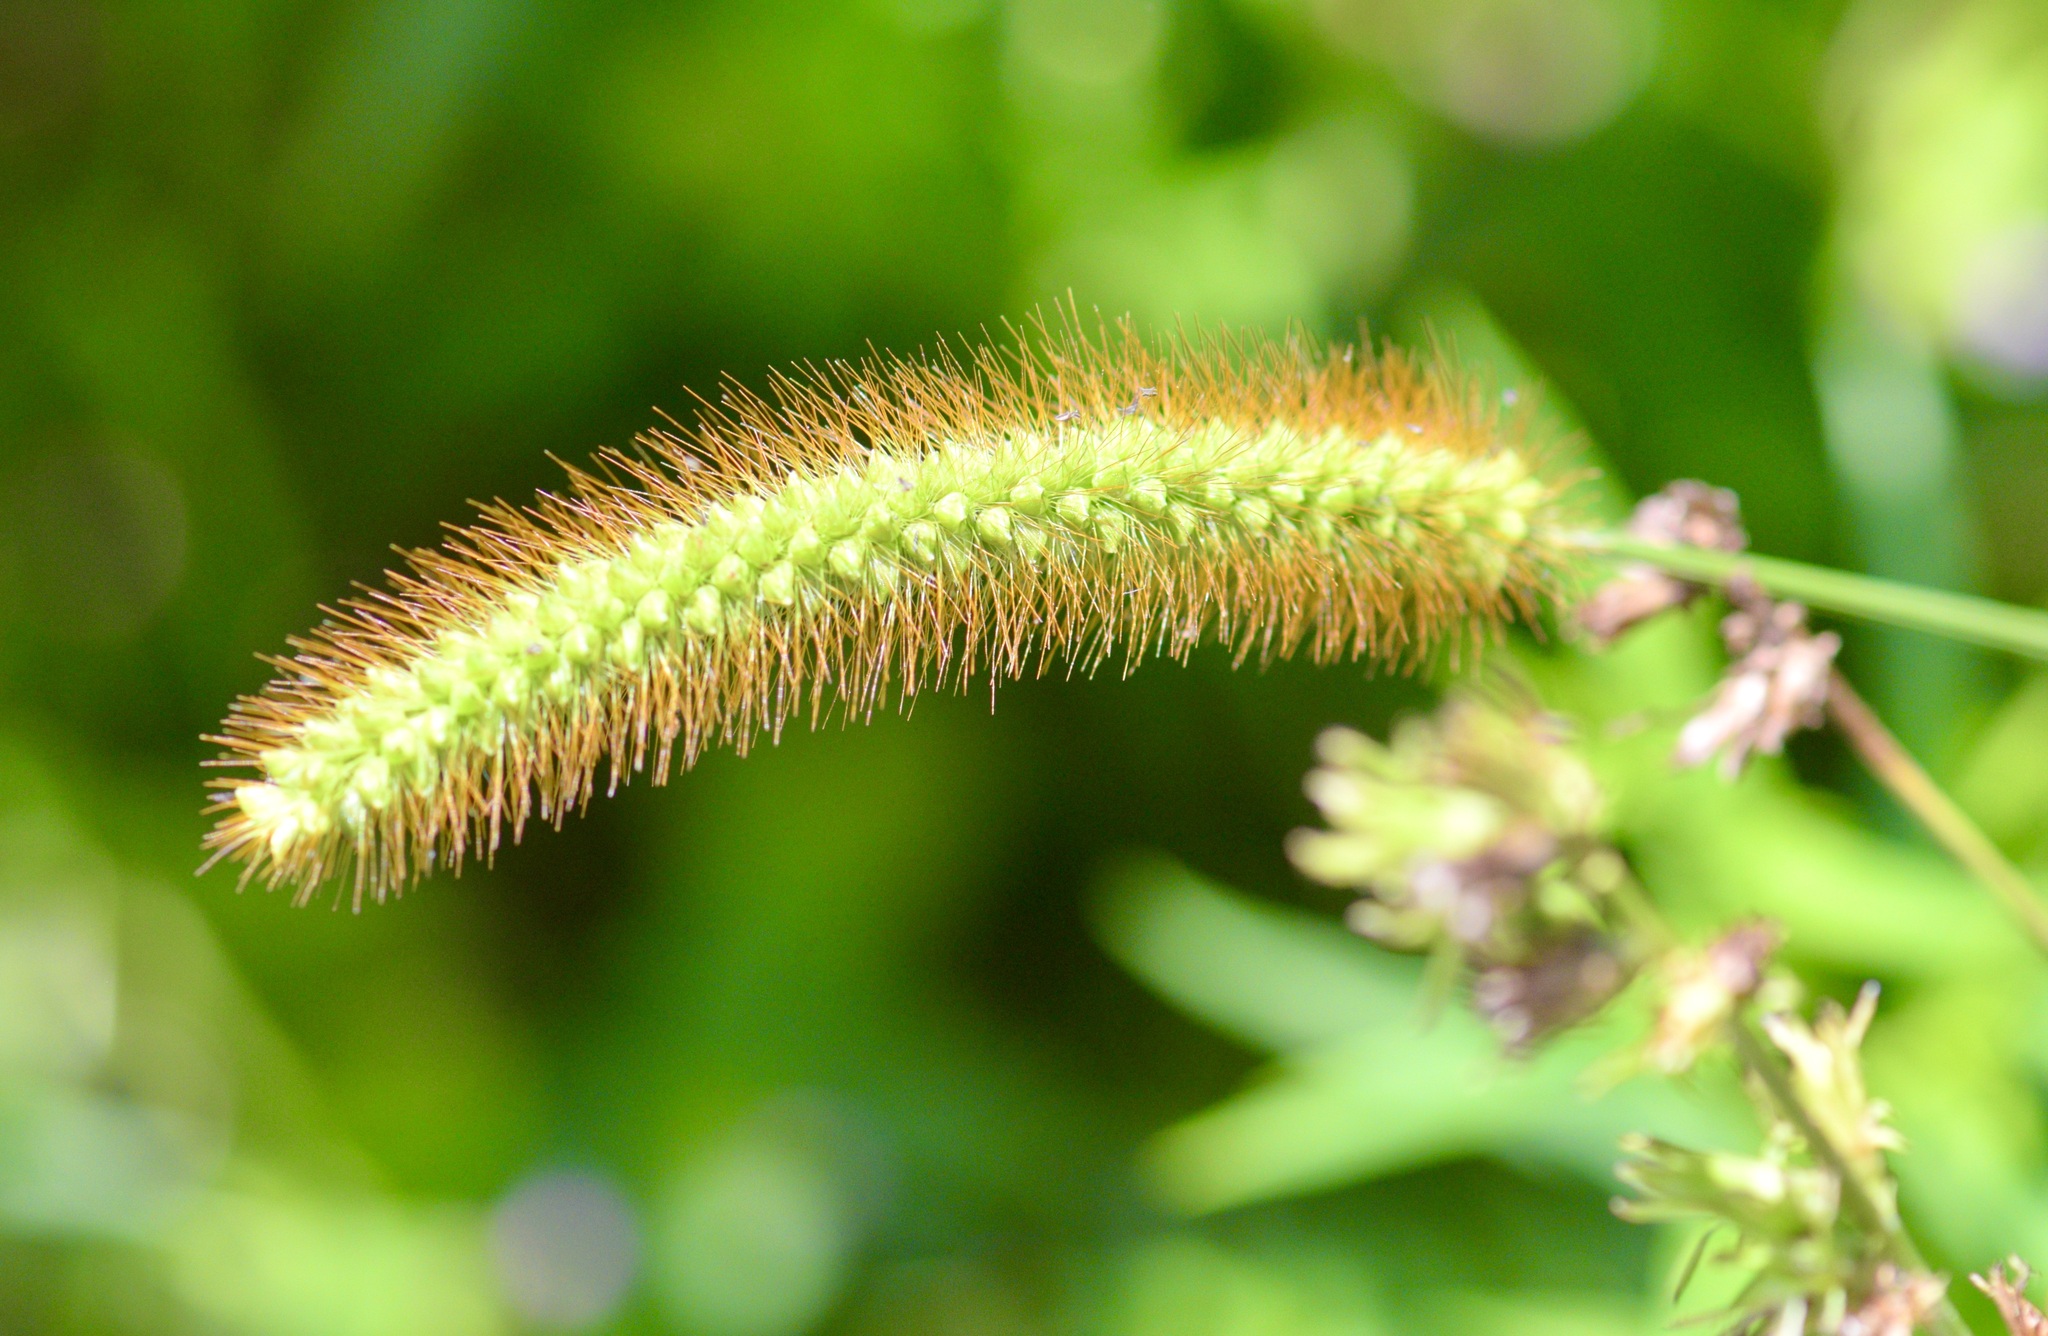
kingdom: Plantae
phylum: Tracheophyta
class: Liliopsida
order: Poales
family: Poaceae
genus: Setaria
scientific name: Setaria pumila
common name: Yellow bristle-grass
